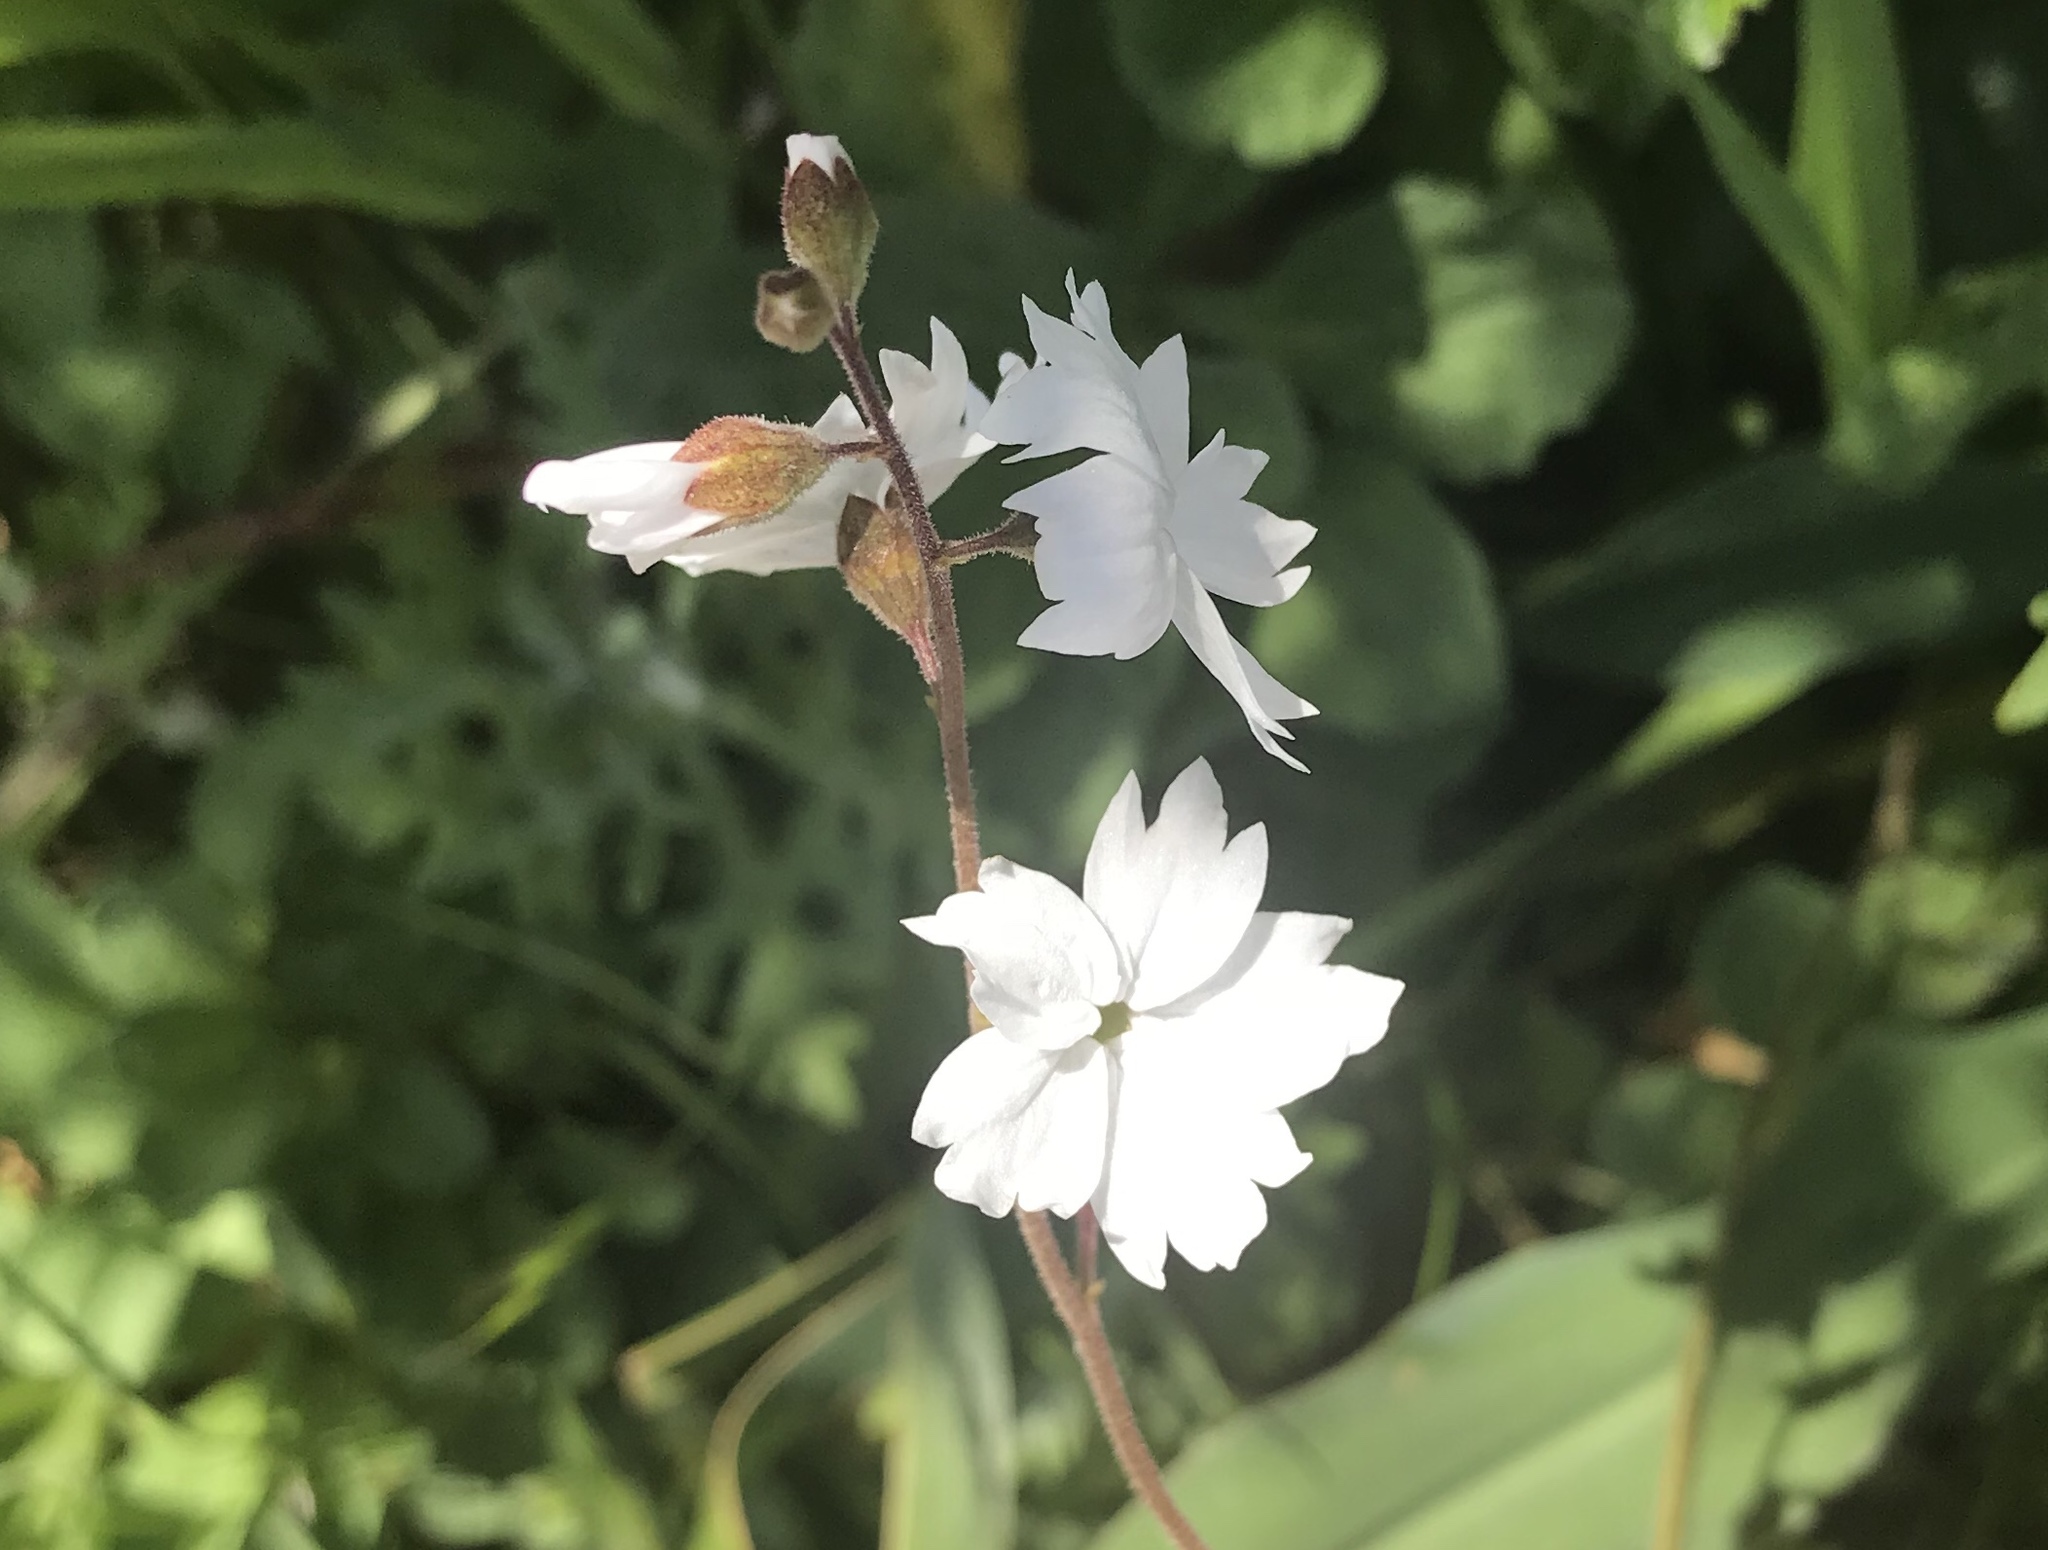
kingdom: Plantae
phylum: Tracheophyta
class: Magnoliopsida
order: Saxifragales
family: Saxifragaceae
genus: Lithophragma
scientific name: Lithophragma affine
